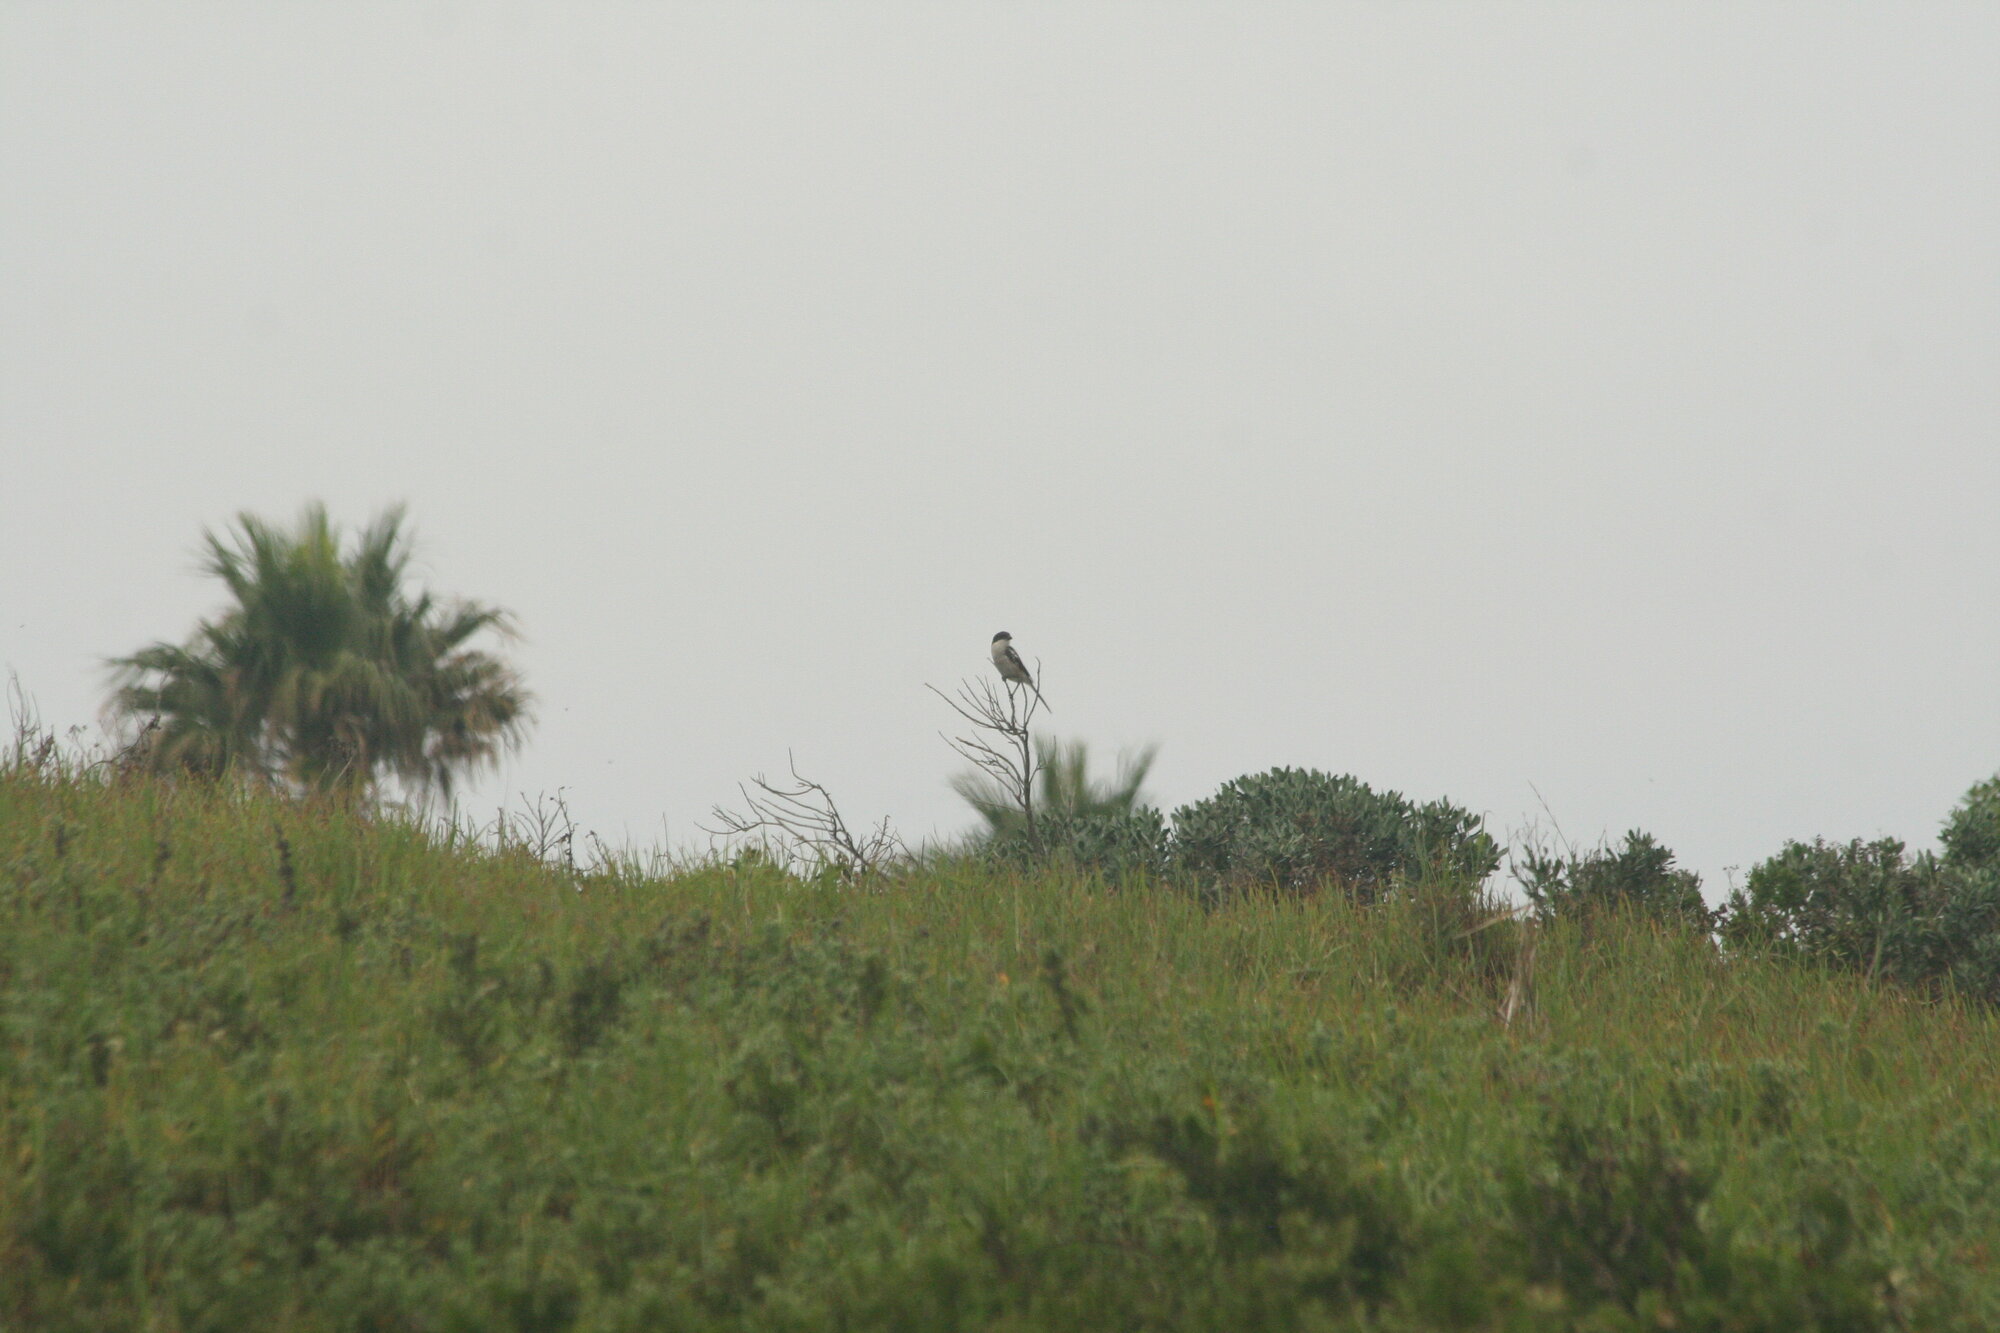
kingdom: Animalia
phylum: Chordata
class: Aves
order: Passeriformes
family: Laniidae
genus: Lanius
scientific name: Lanius collaris
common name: Southern fiscal
